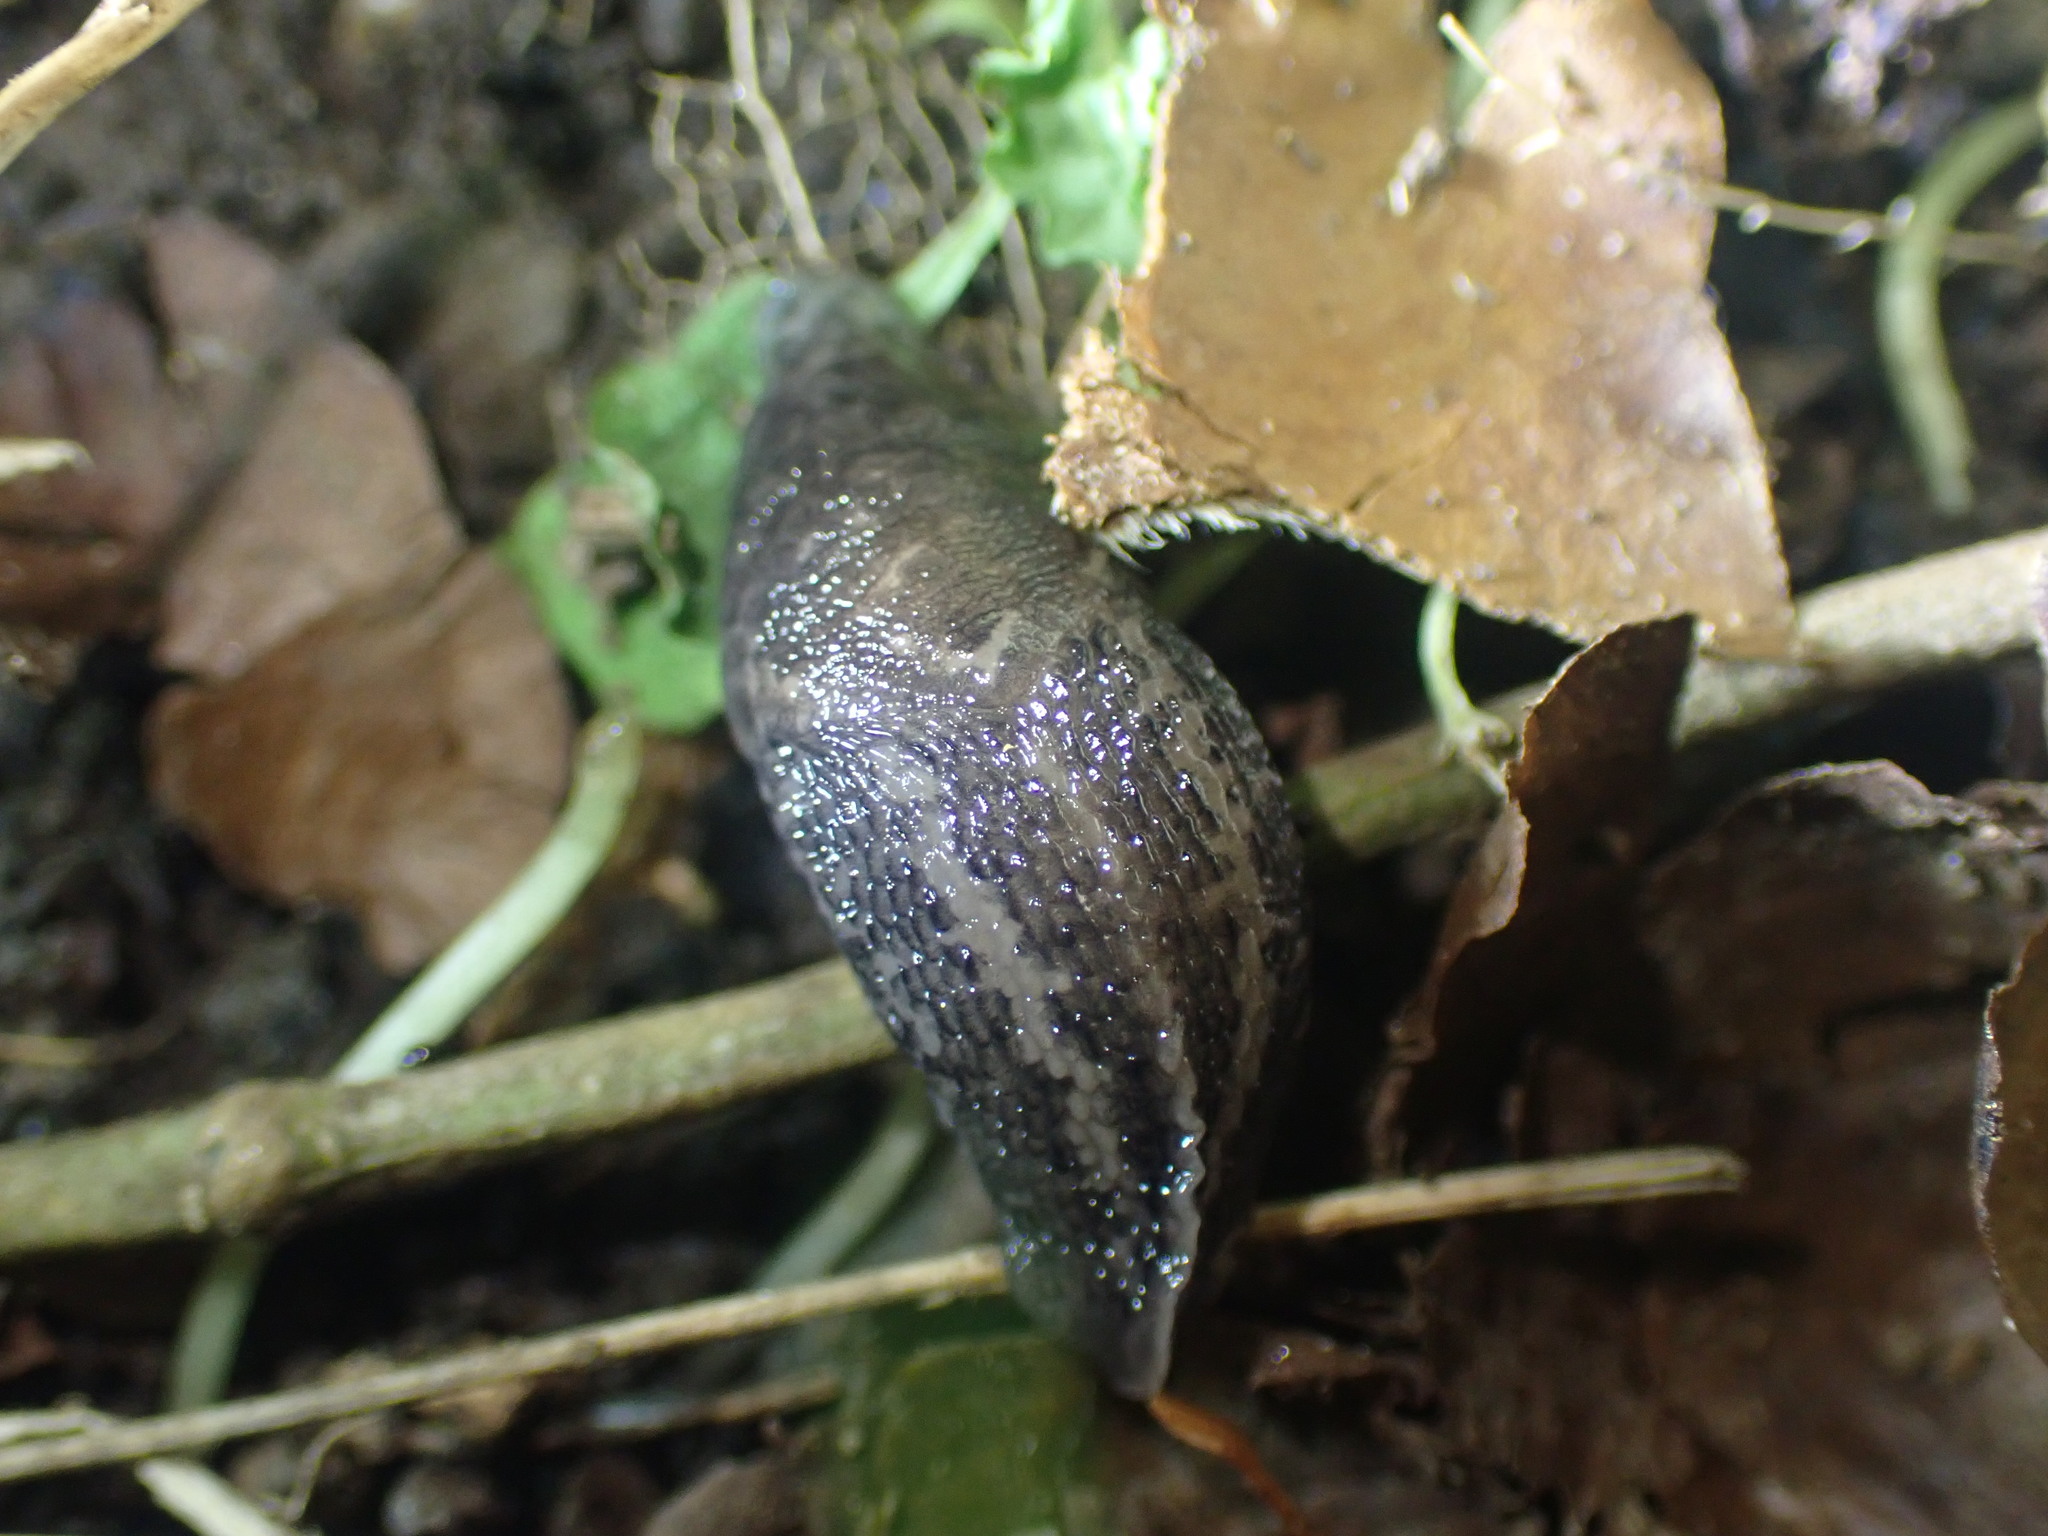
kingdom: Animalia
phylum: Mollusca
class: Gastropoda
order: Stylommatophora
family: Limacidae
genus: Limax
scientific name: Limax maximus
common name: Great grey slug
